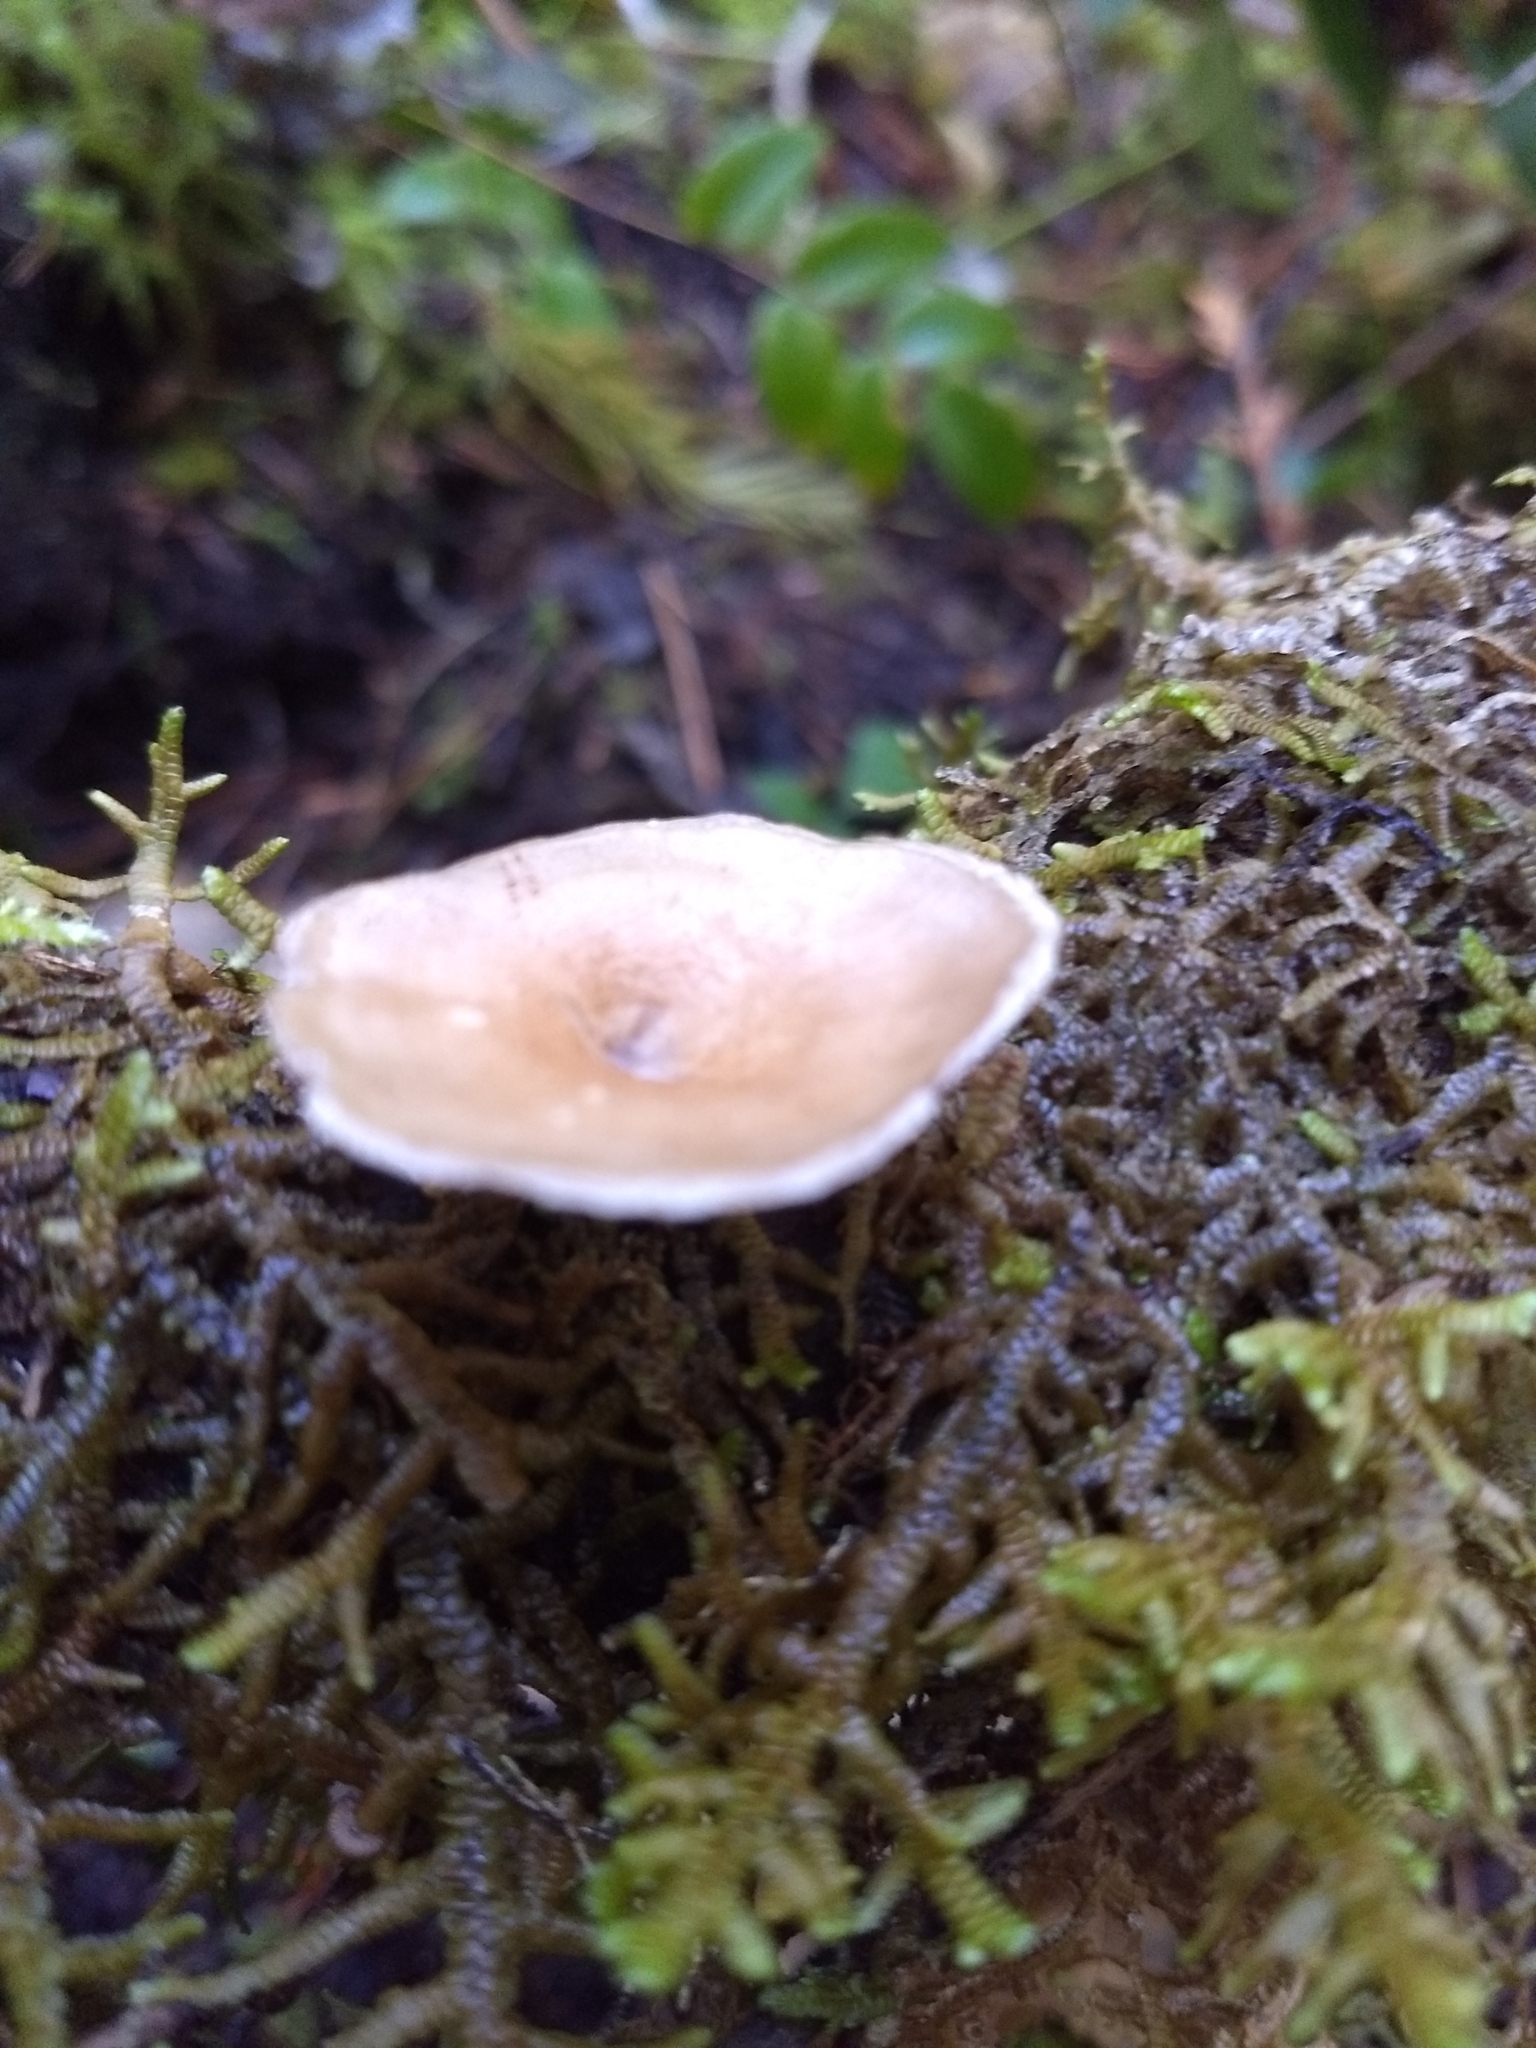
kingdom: Fungi
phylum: Basidiomycota
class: Agaricomycetes
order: Polyporales
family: Polyporaceae
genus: Picipes
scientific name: Picipes badius
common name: Bay polypore
